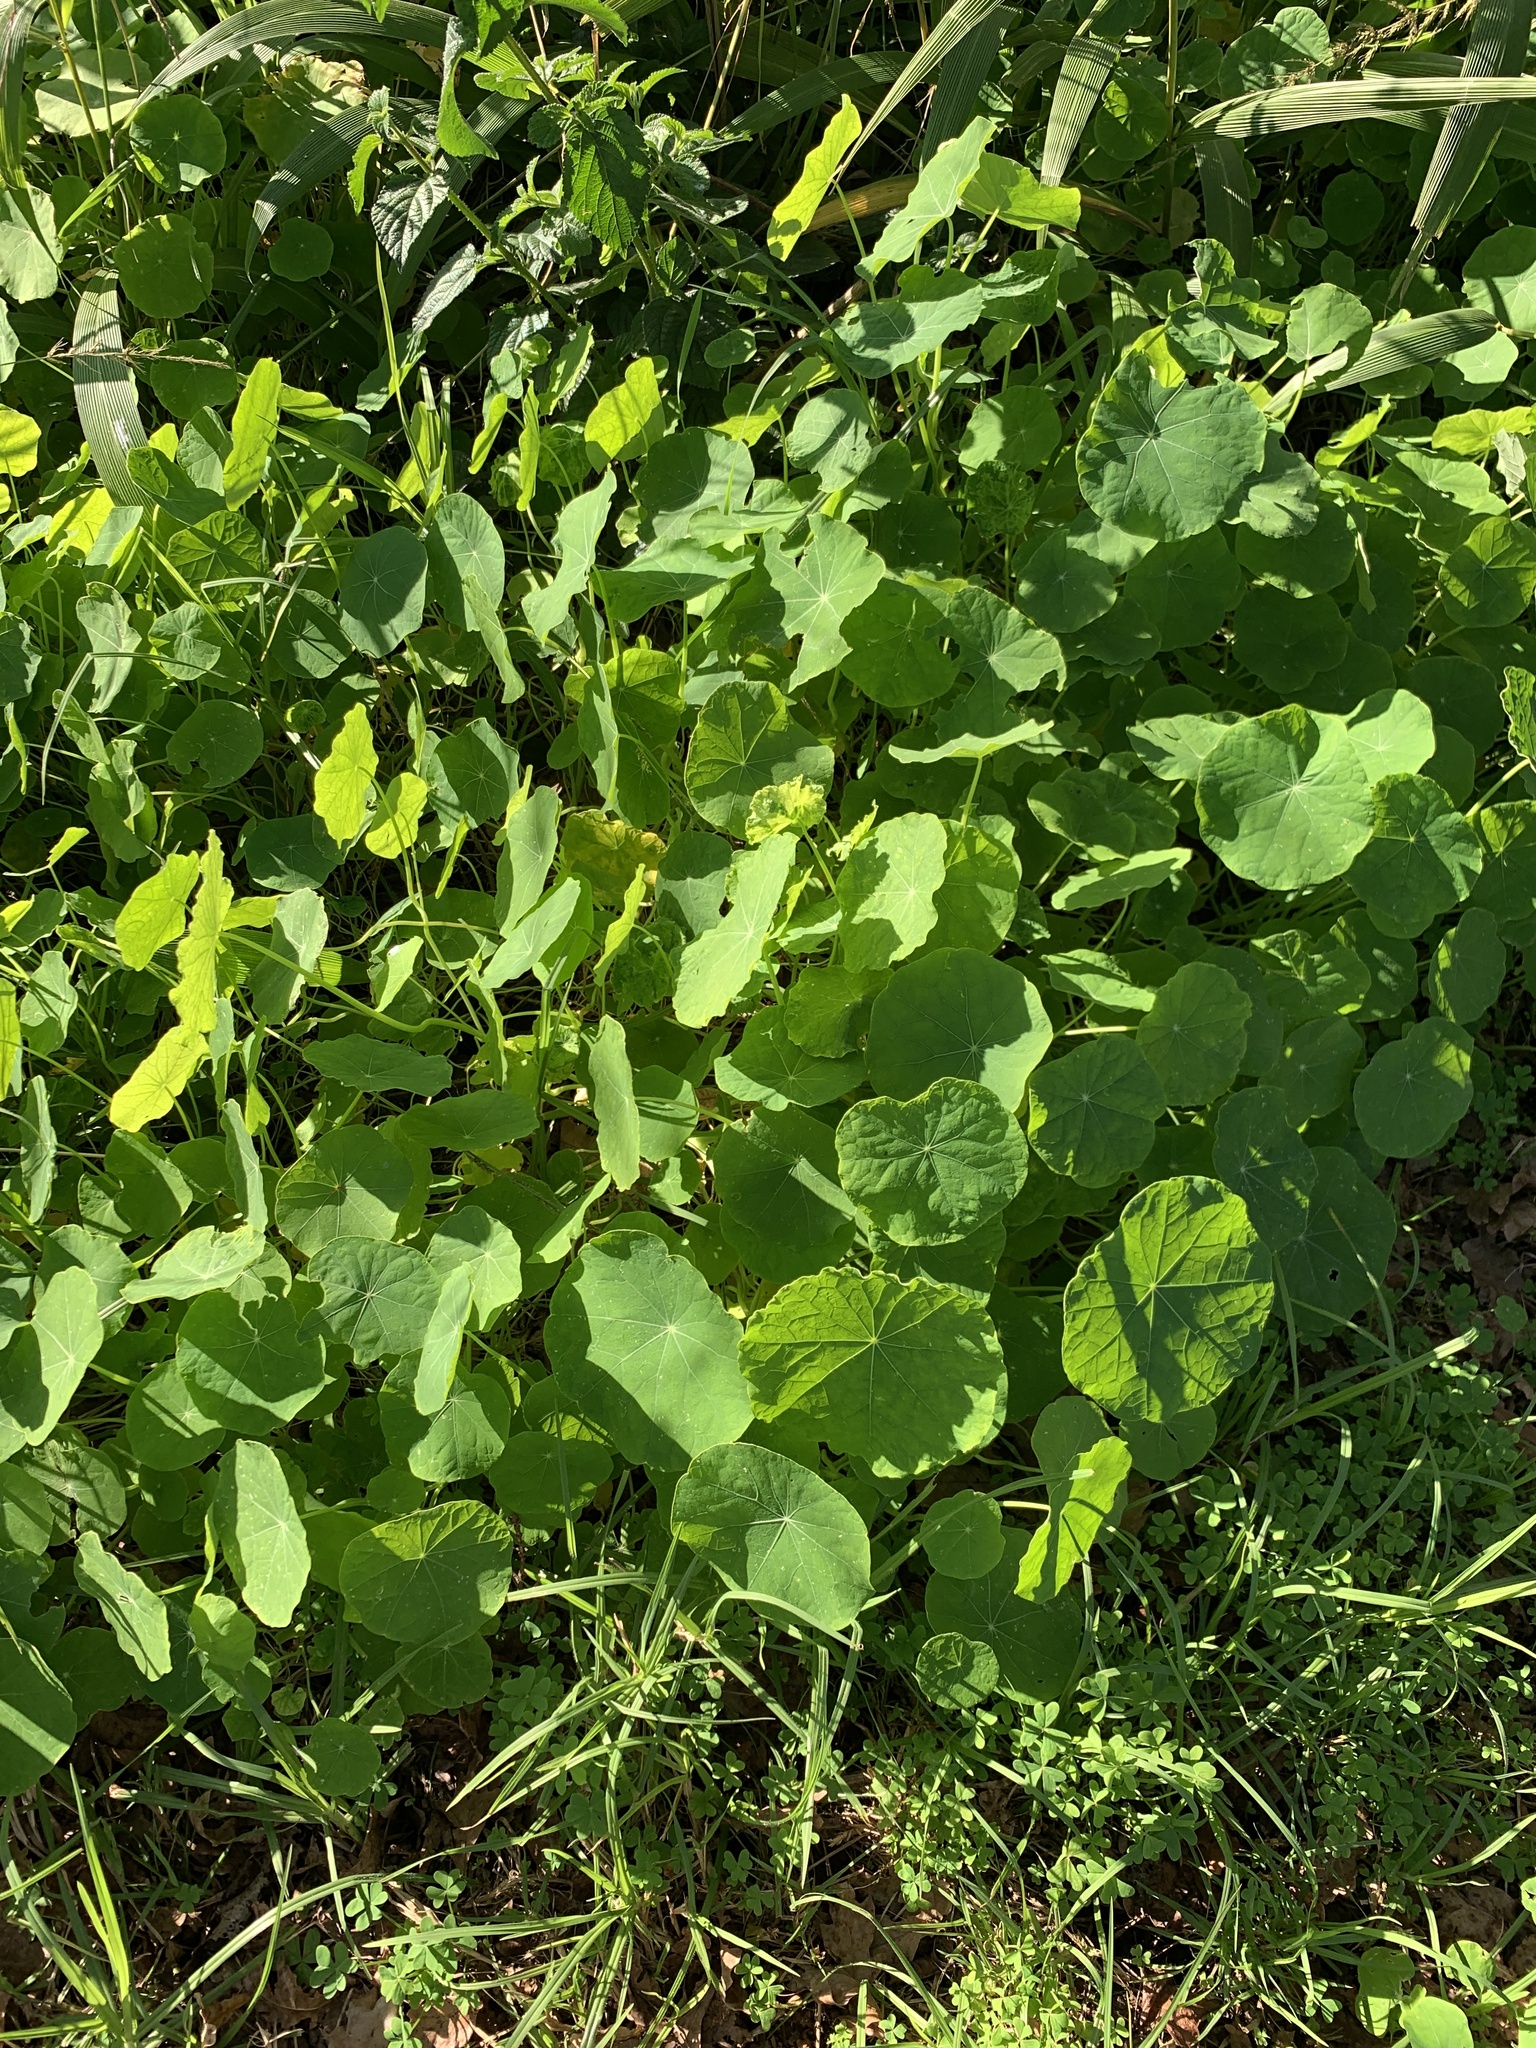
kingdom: Plantae
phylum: Tracheophyta
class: Magnoliopsida
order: Brassicales
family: Tropaeolaceae
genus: Tropaeolum
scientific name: Tropaeolum majus
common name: Nasturtium
